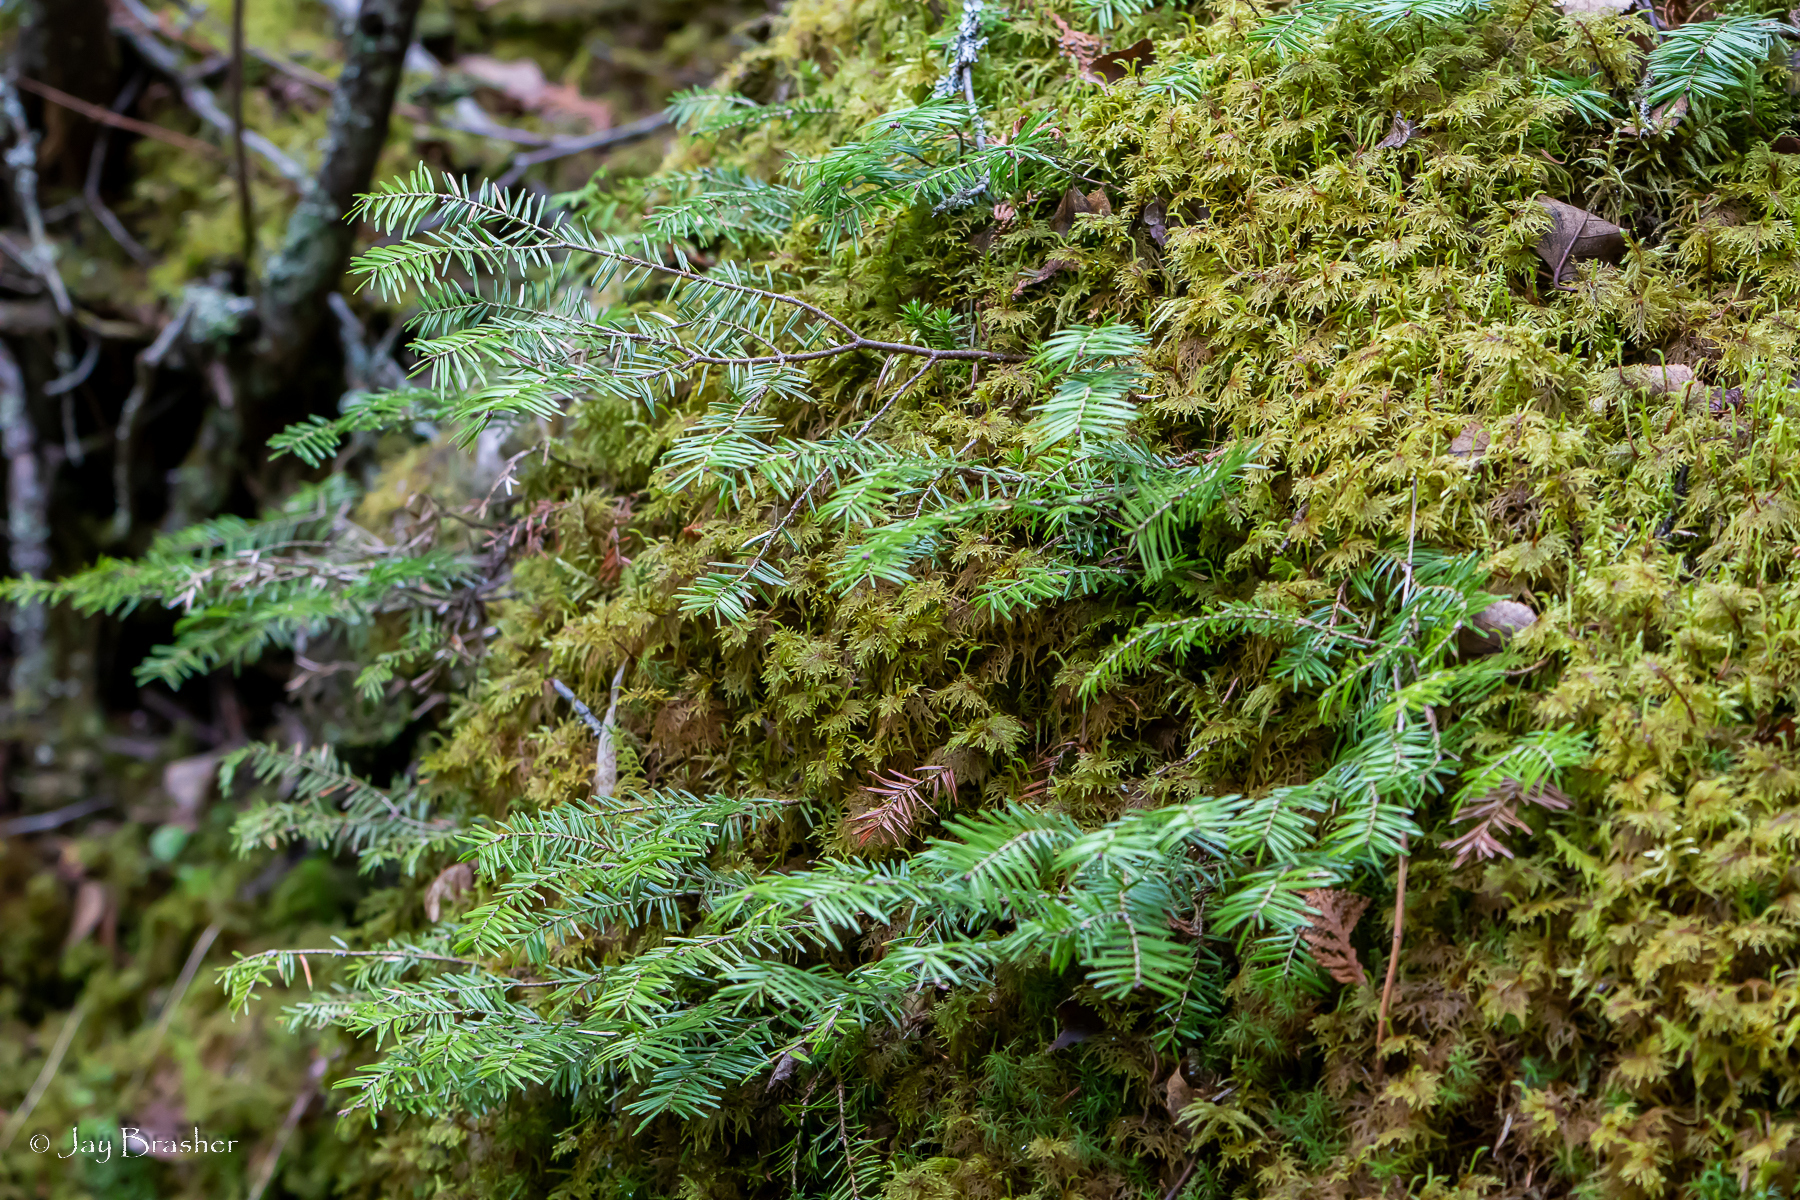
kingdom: Plantae
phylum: Tracheophyta
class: Pinopsida
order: Pinales
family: Pinaceae
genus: Abies
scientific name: Abies balsamea
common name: Balsam fir
